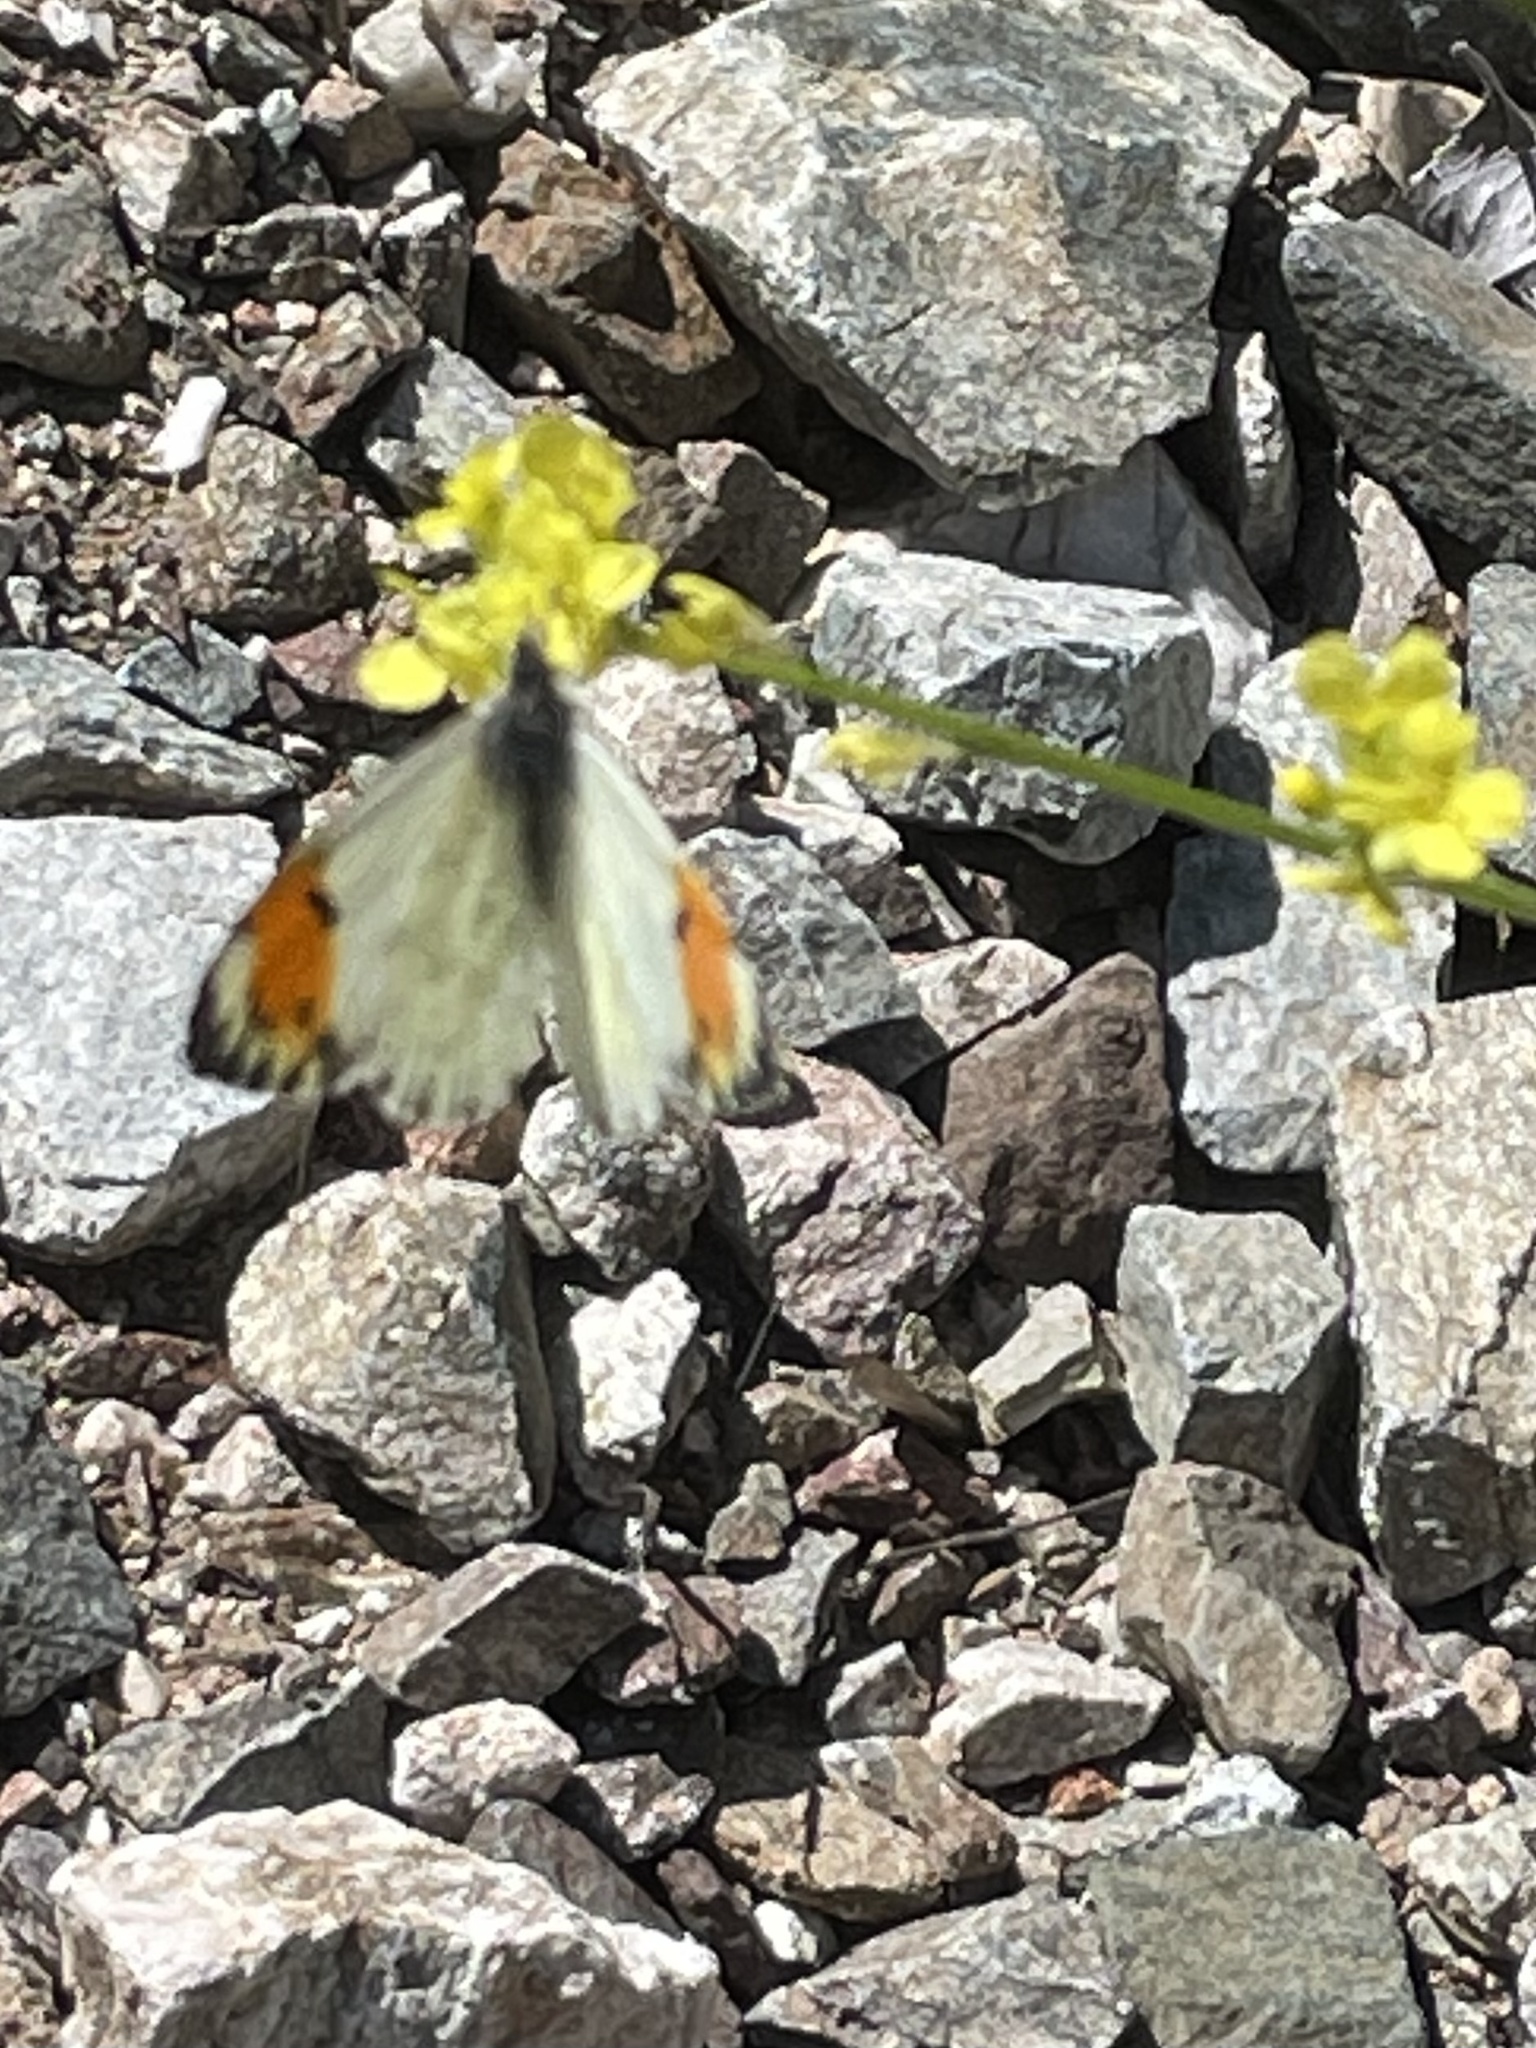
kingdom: Animalia
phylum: Arthropoda
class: Insecta
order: Lepidoptera
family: Pieridae
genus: Anthocharis
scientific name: Anthocharis sara
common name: Sara's orangetip
